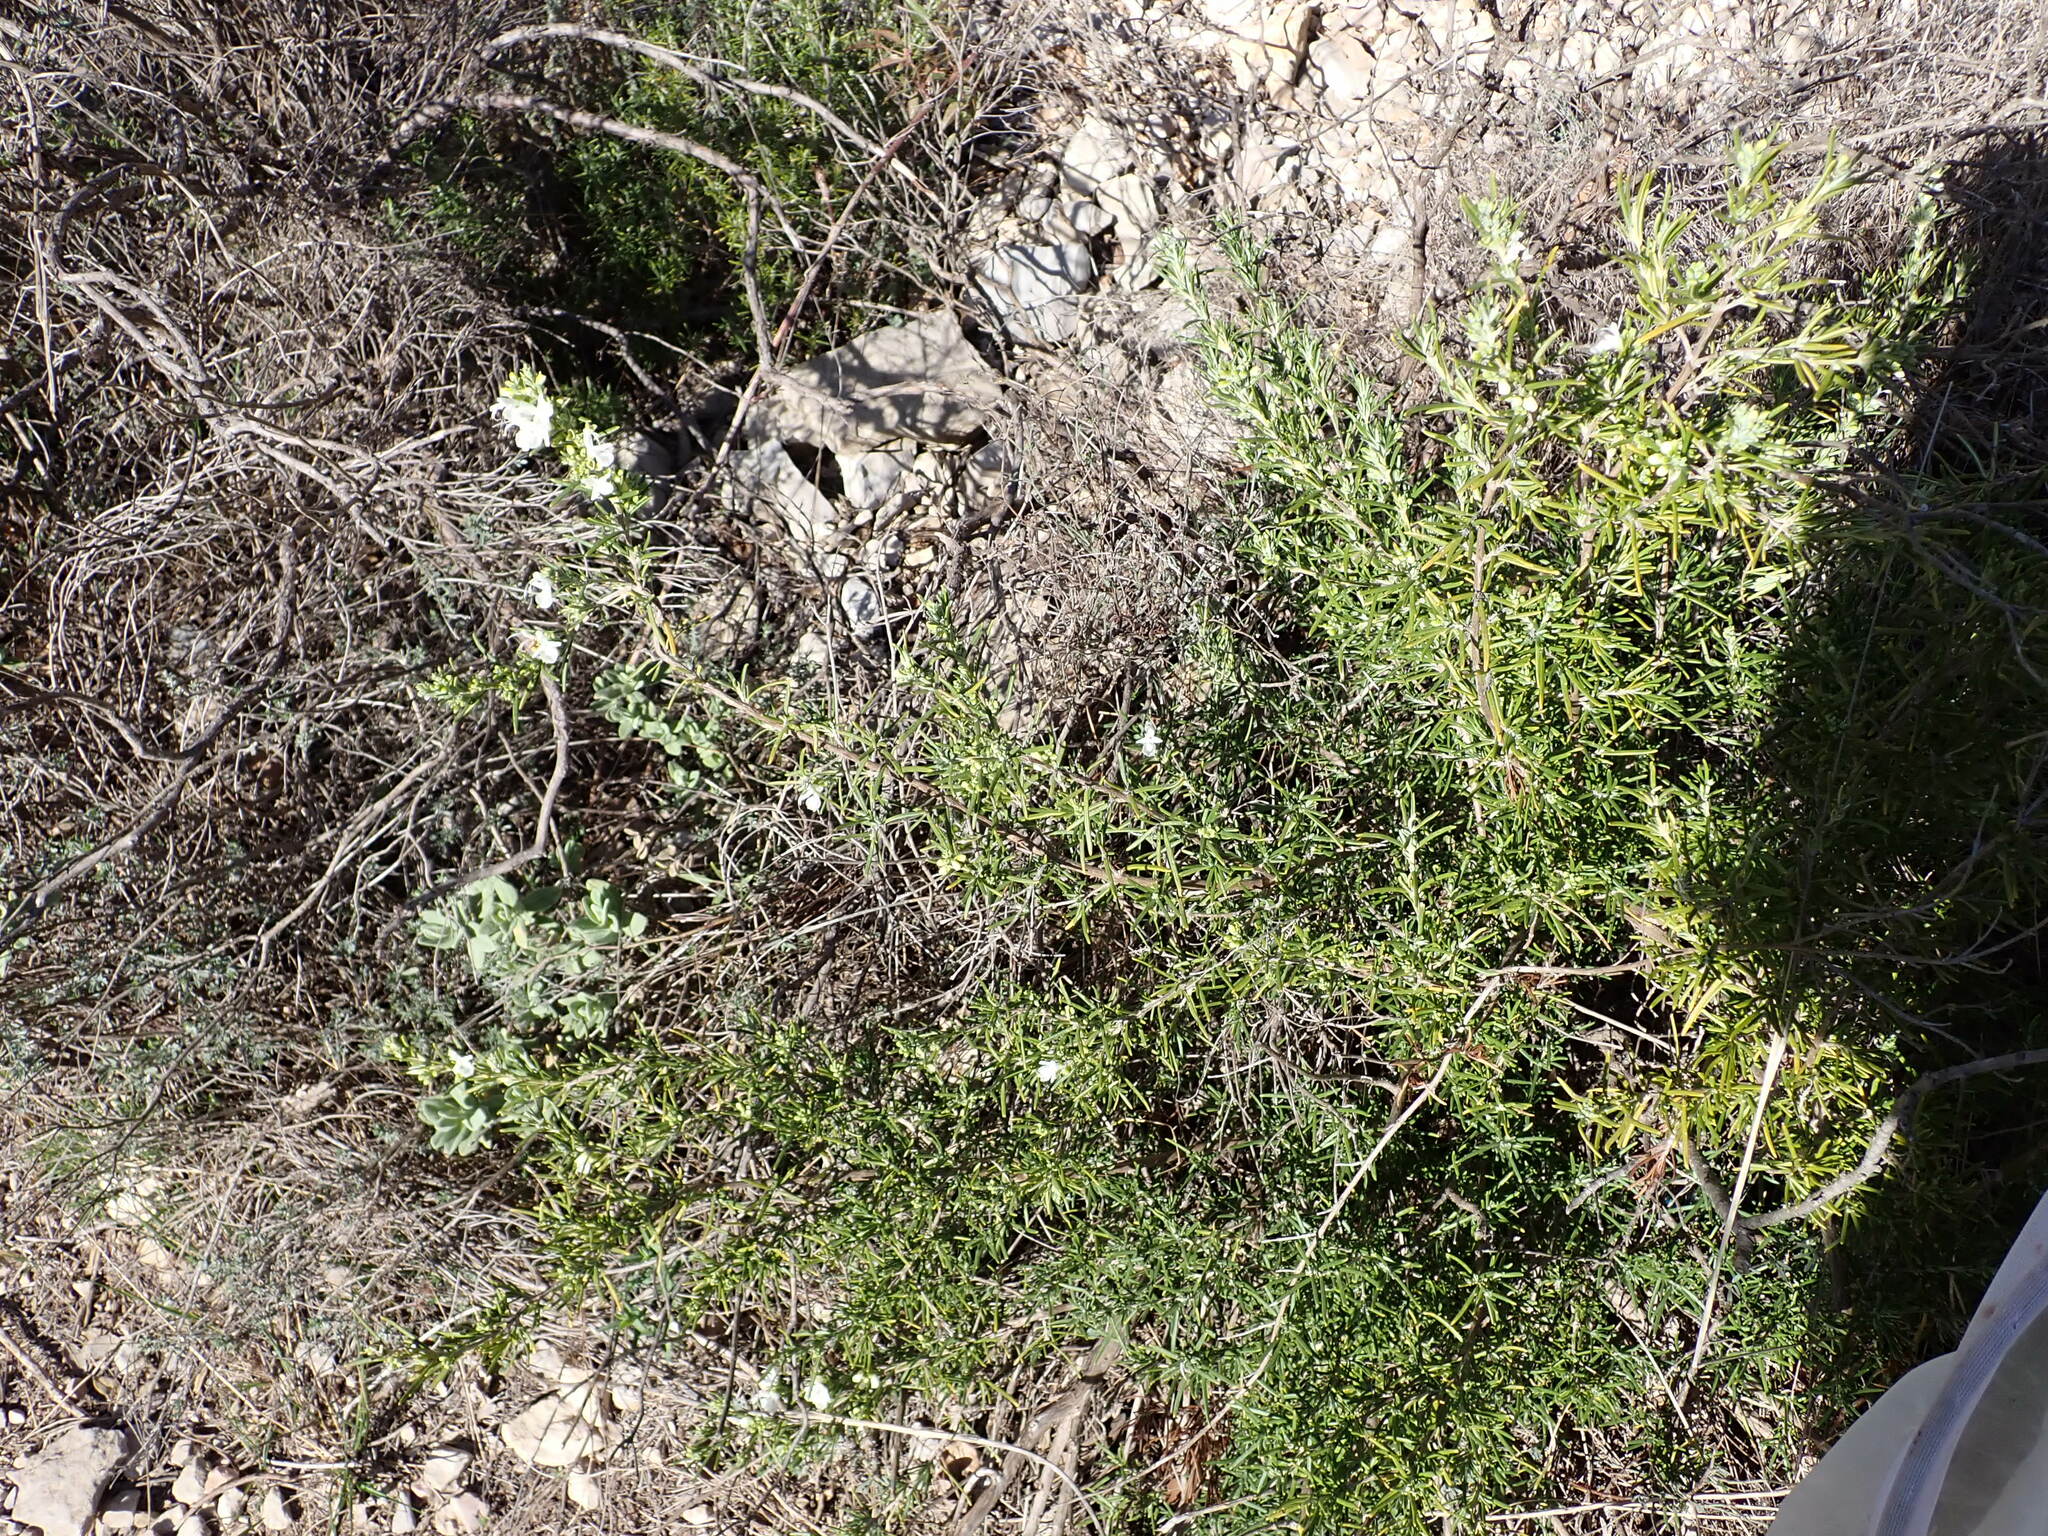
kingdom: Plantae
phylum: Tracheophyta
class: Magnoliopsida
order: Lamiales
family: Lamiaceae
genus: Salvia
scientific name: Salvia rosmarinus
